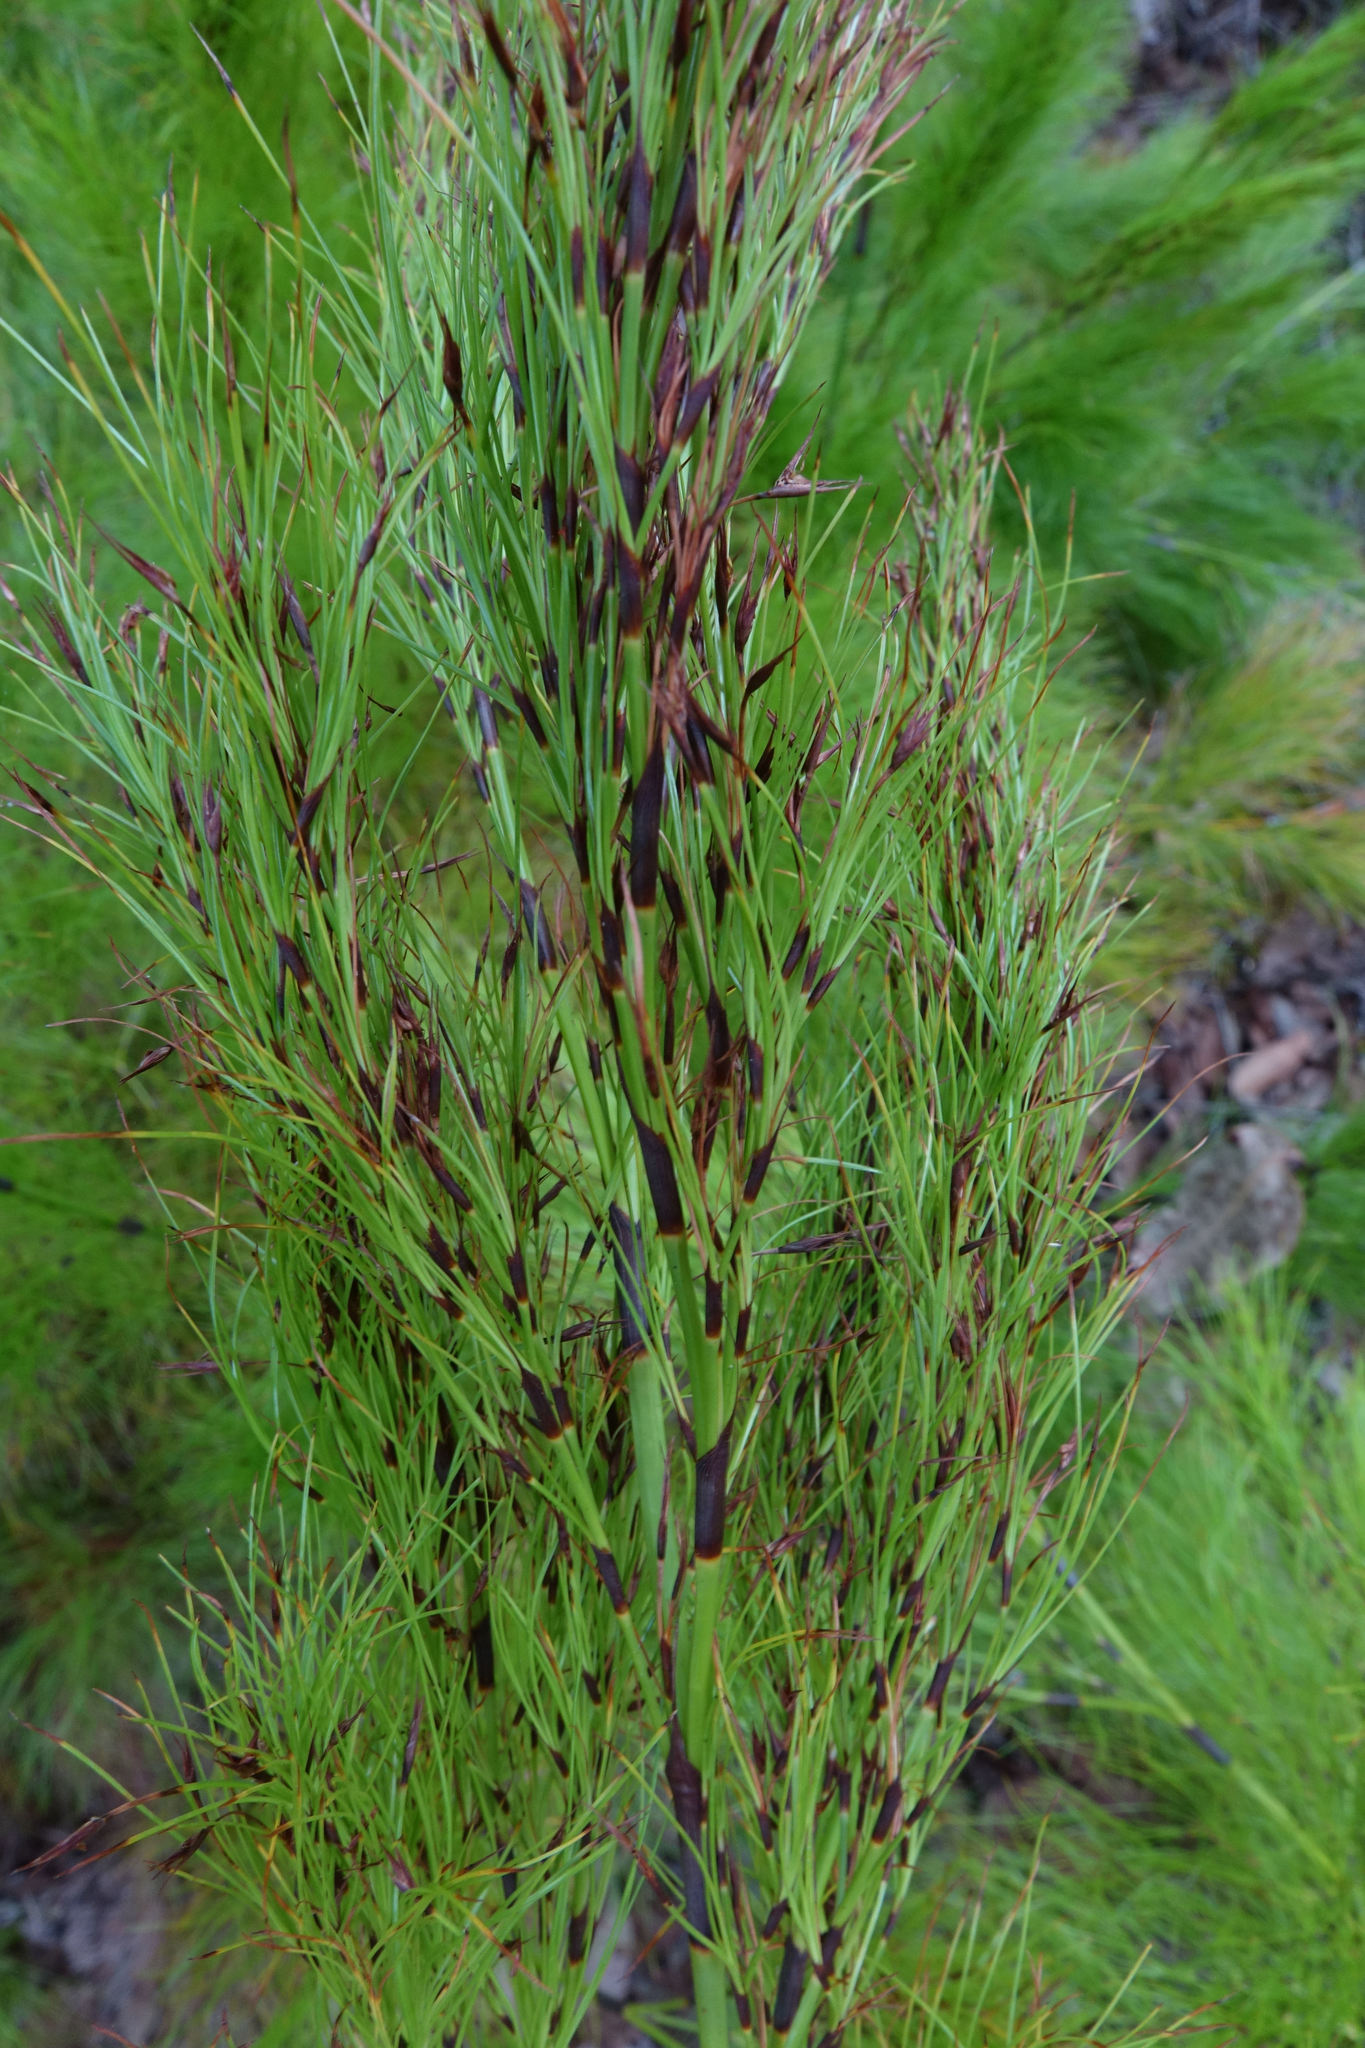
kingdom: Plantae
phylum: Tracheophyta
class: Liliopsida
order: Poales
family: Cyperaceae
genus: Caustis
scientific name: Caustis blakei
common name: Foxtail-fern
